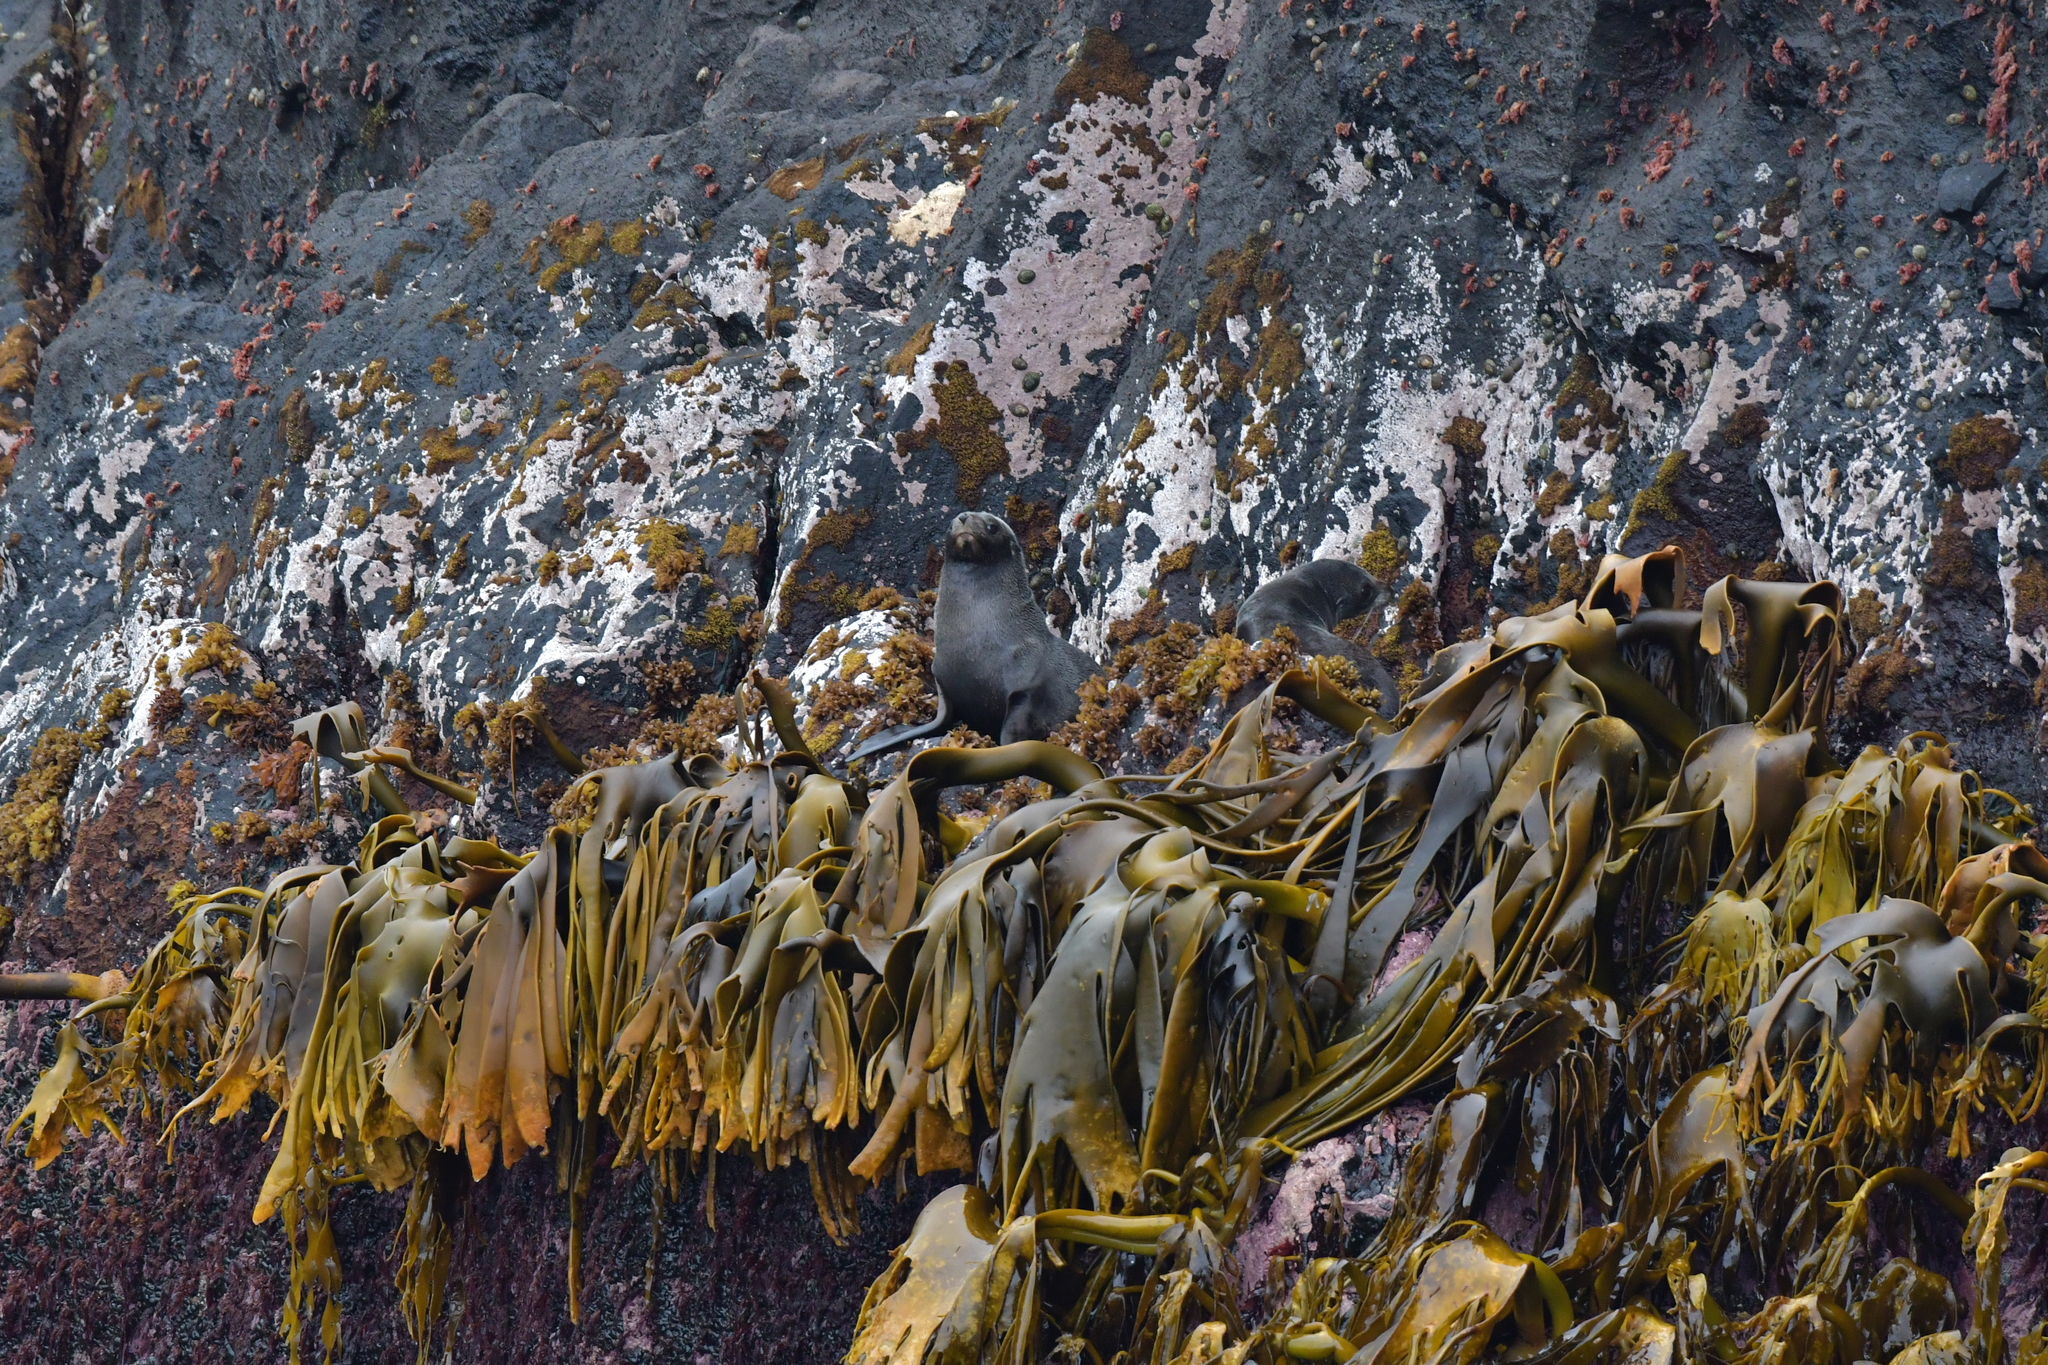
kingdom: Animalia
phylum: Chordata
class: Mammalia
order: Carnivora
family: Otariidae
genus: Arctocephalus
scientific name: Arctocephalus forsteri
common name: New zealand fur seal
